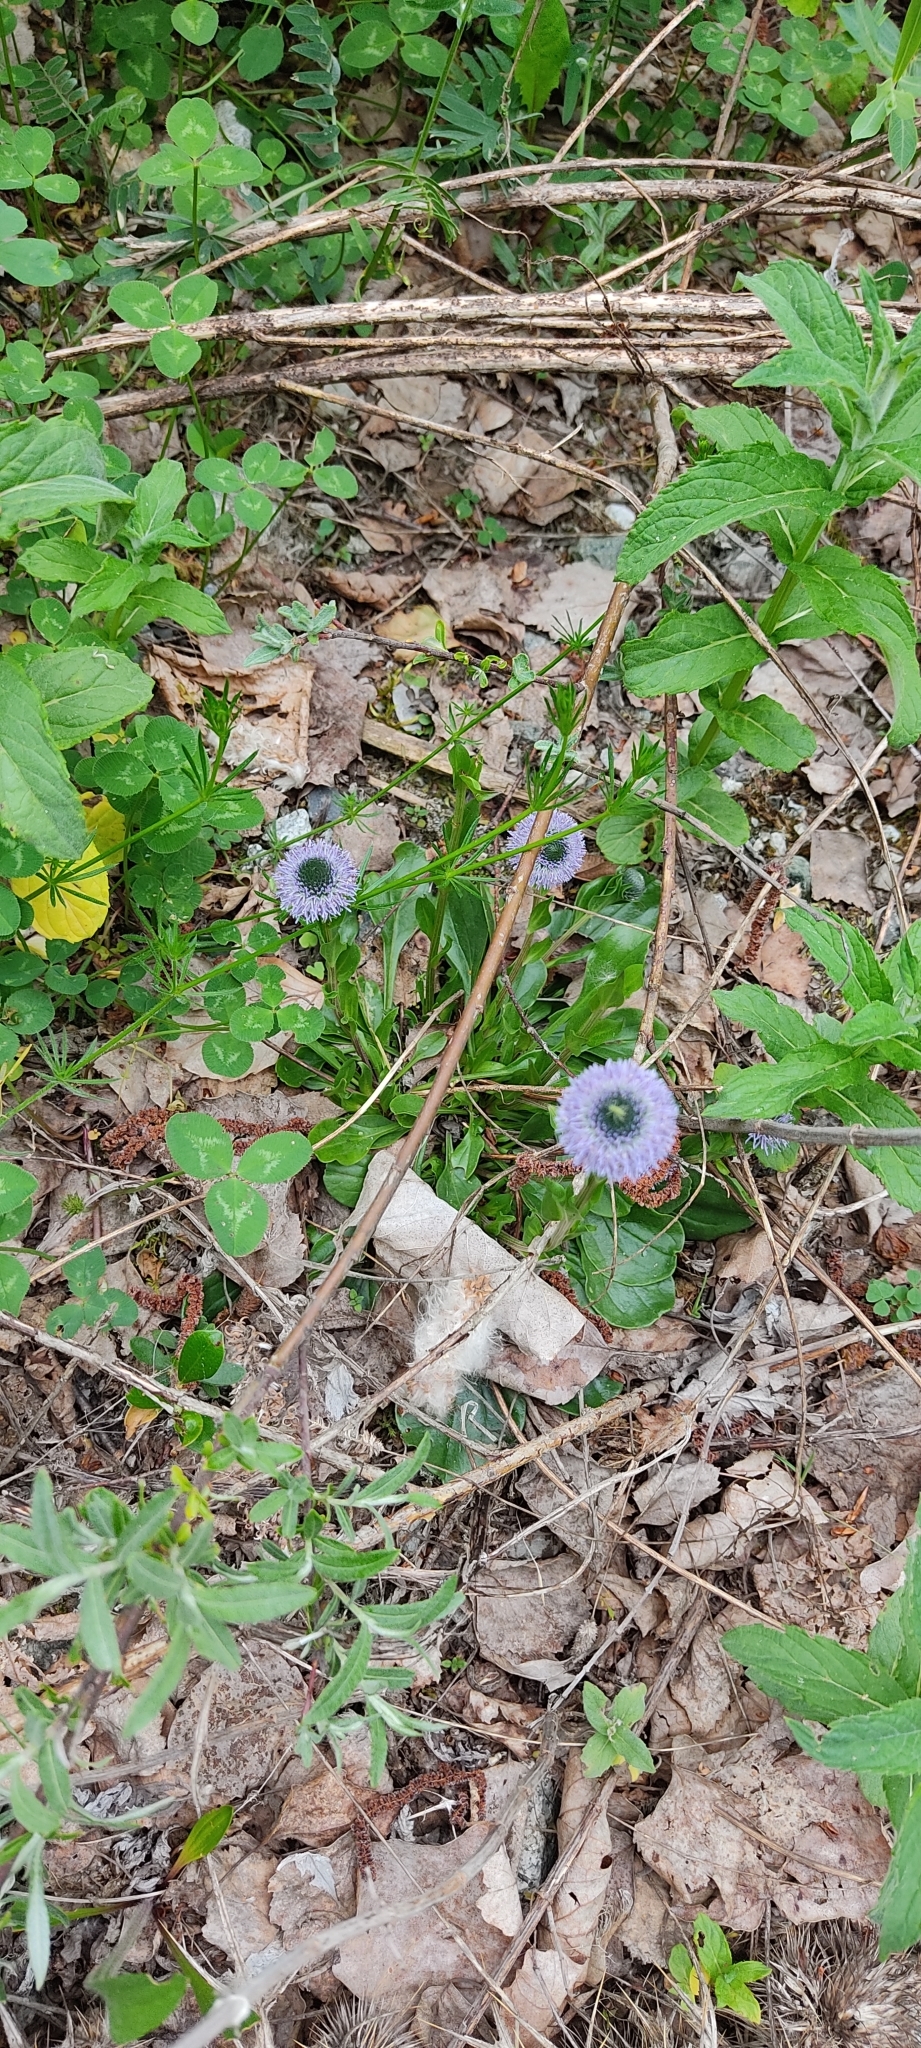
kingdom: Plantae
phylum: Tracheophyta
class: Magnoliopsida
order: Lamiales
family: Plantaginaceae
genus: Globularia
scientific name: Globularia bisnagarica
